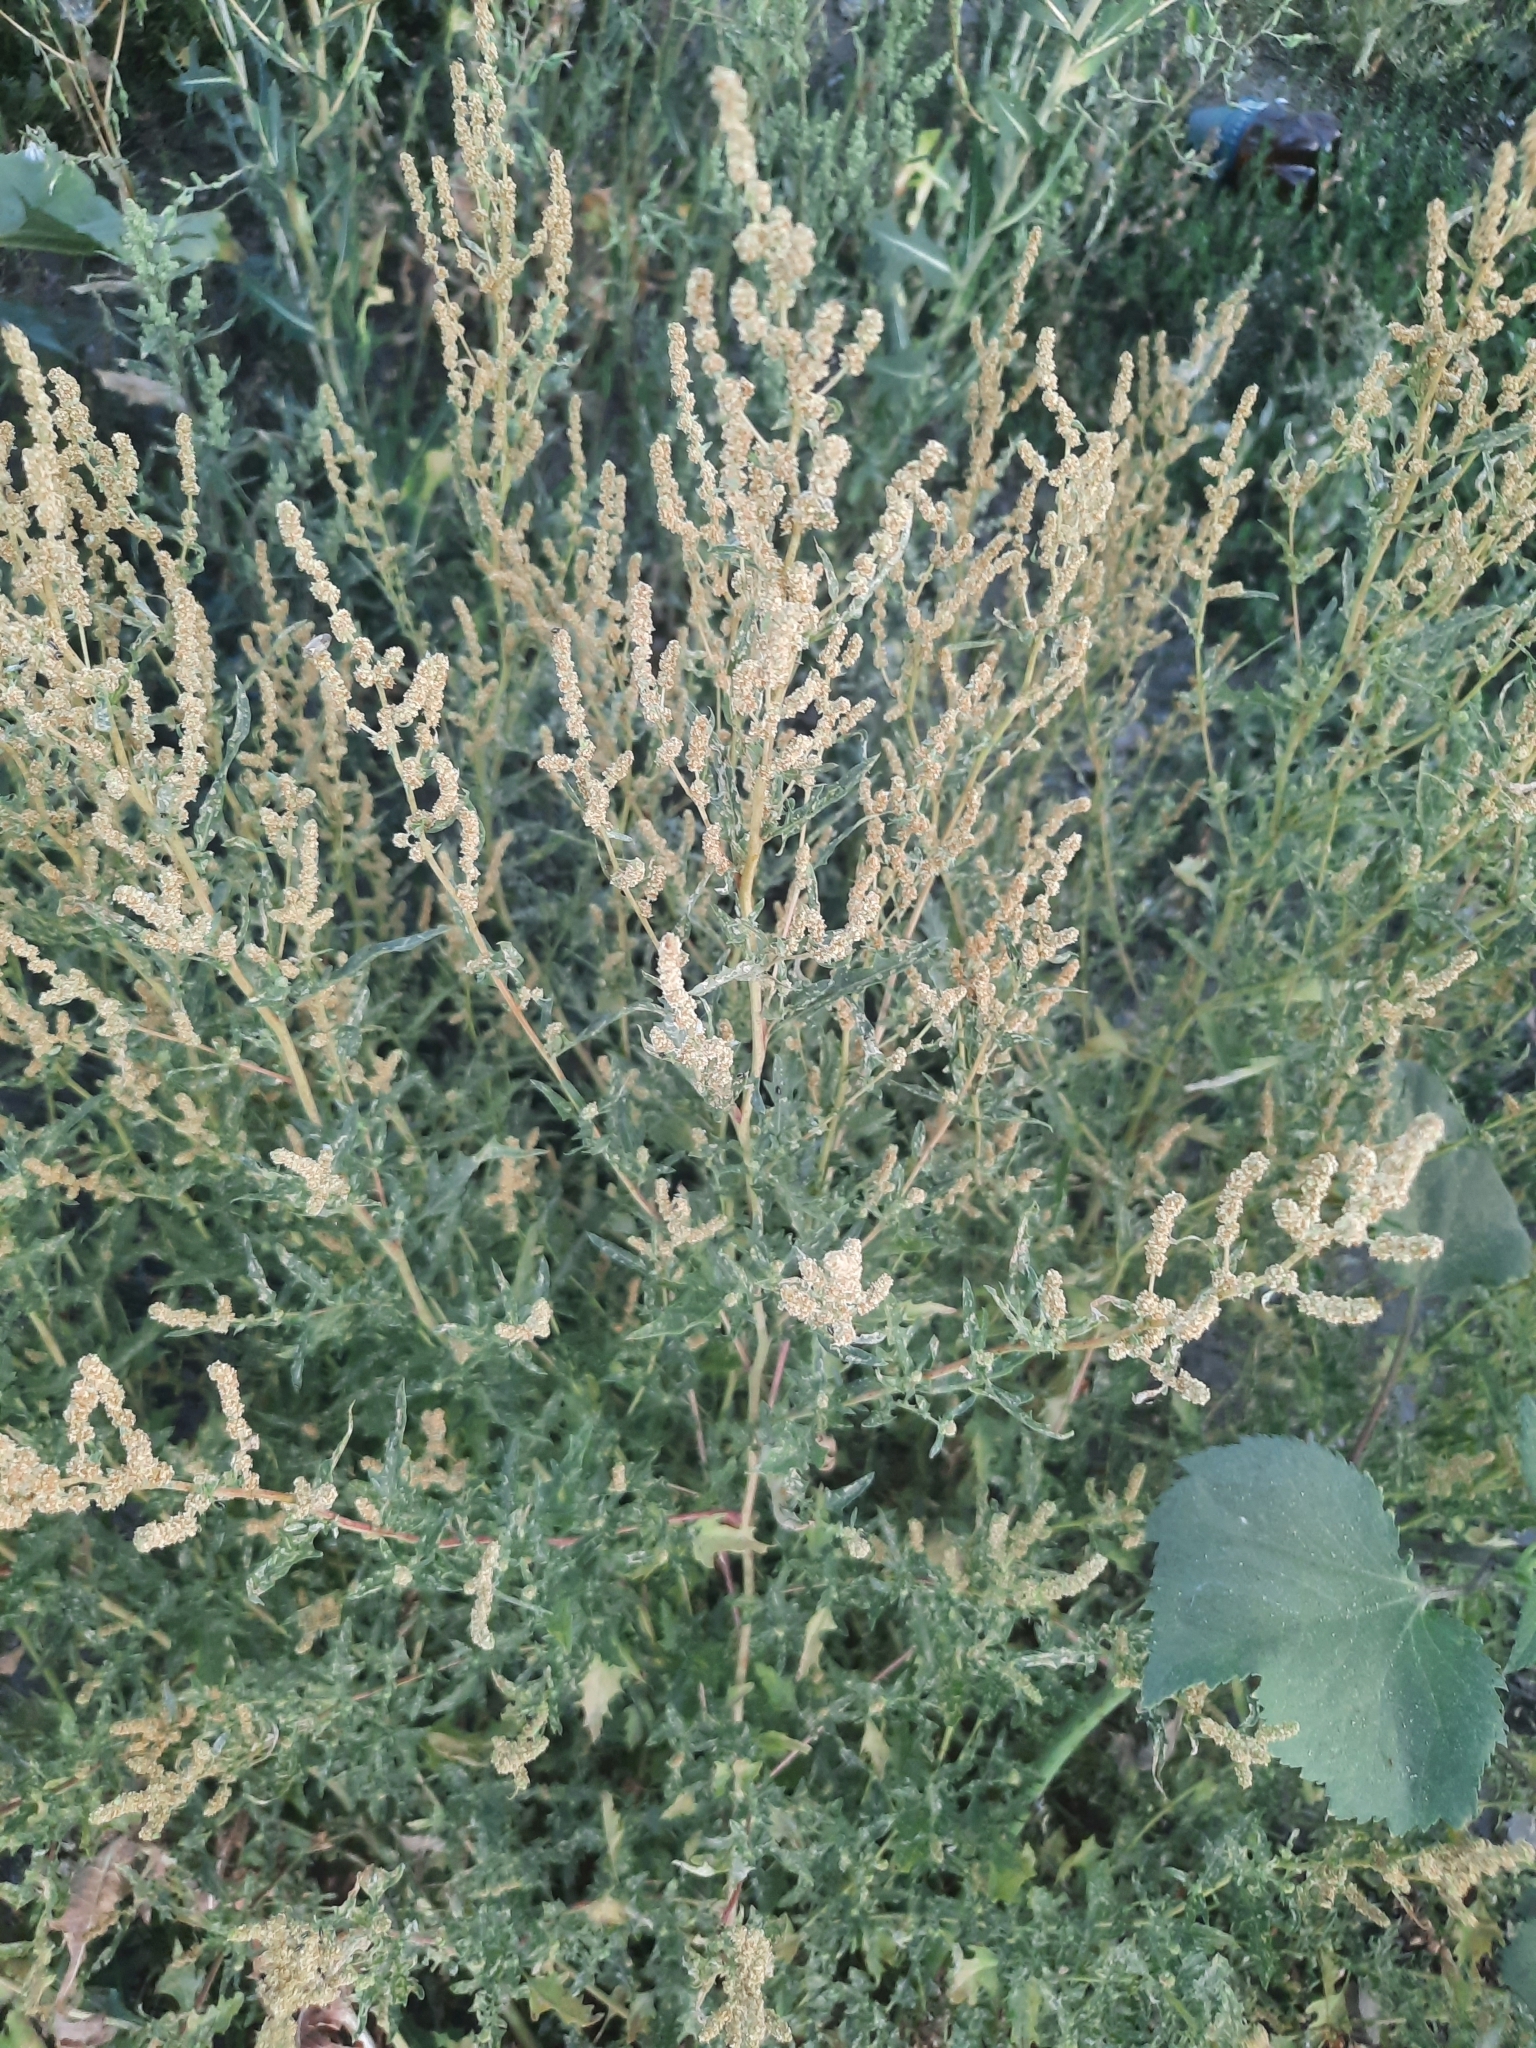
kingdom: Plantae
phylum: Tracheophyta
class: Magnoliopsida
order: Caryophyllales
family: Amaranthaceae
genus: Atriplex
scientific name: Atriplex tatarica
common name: Tatarian orache
